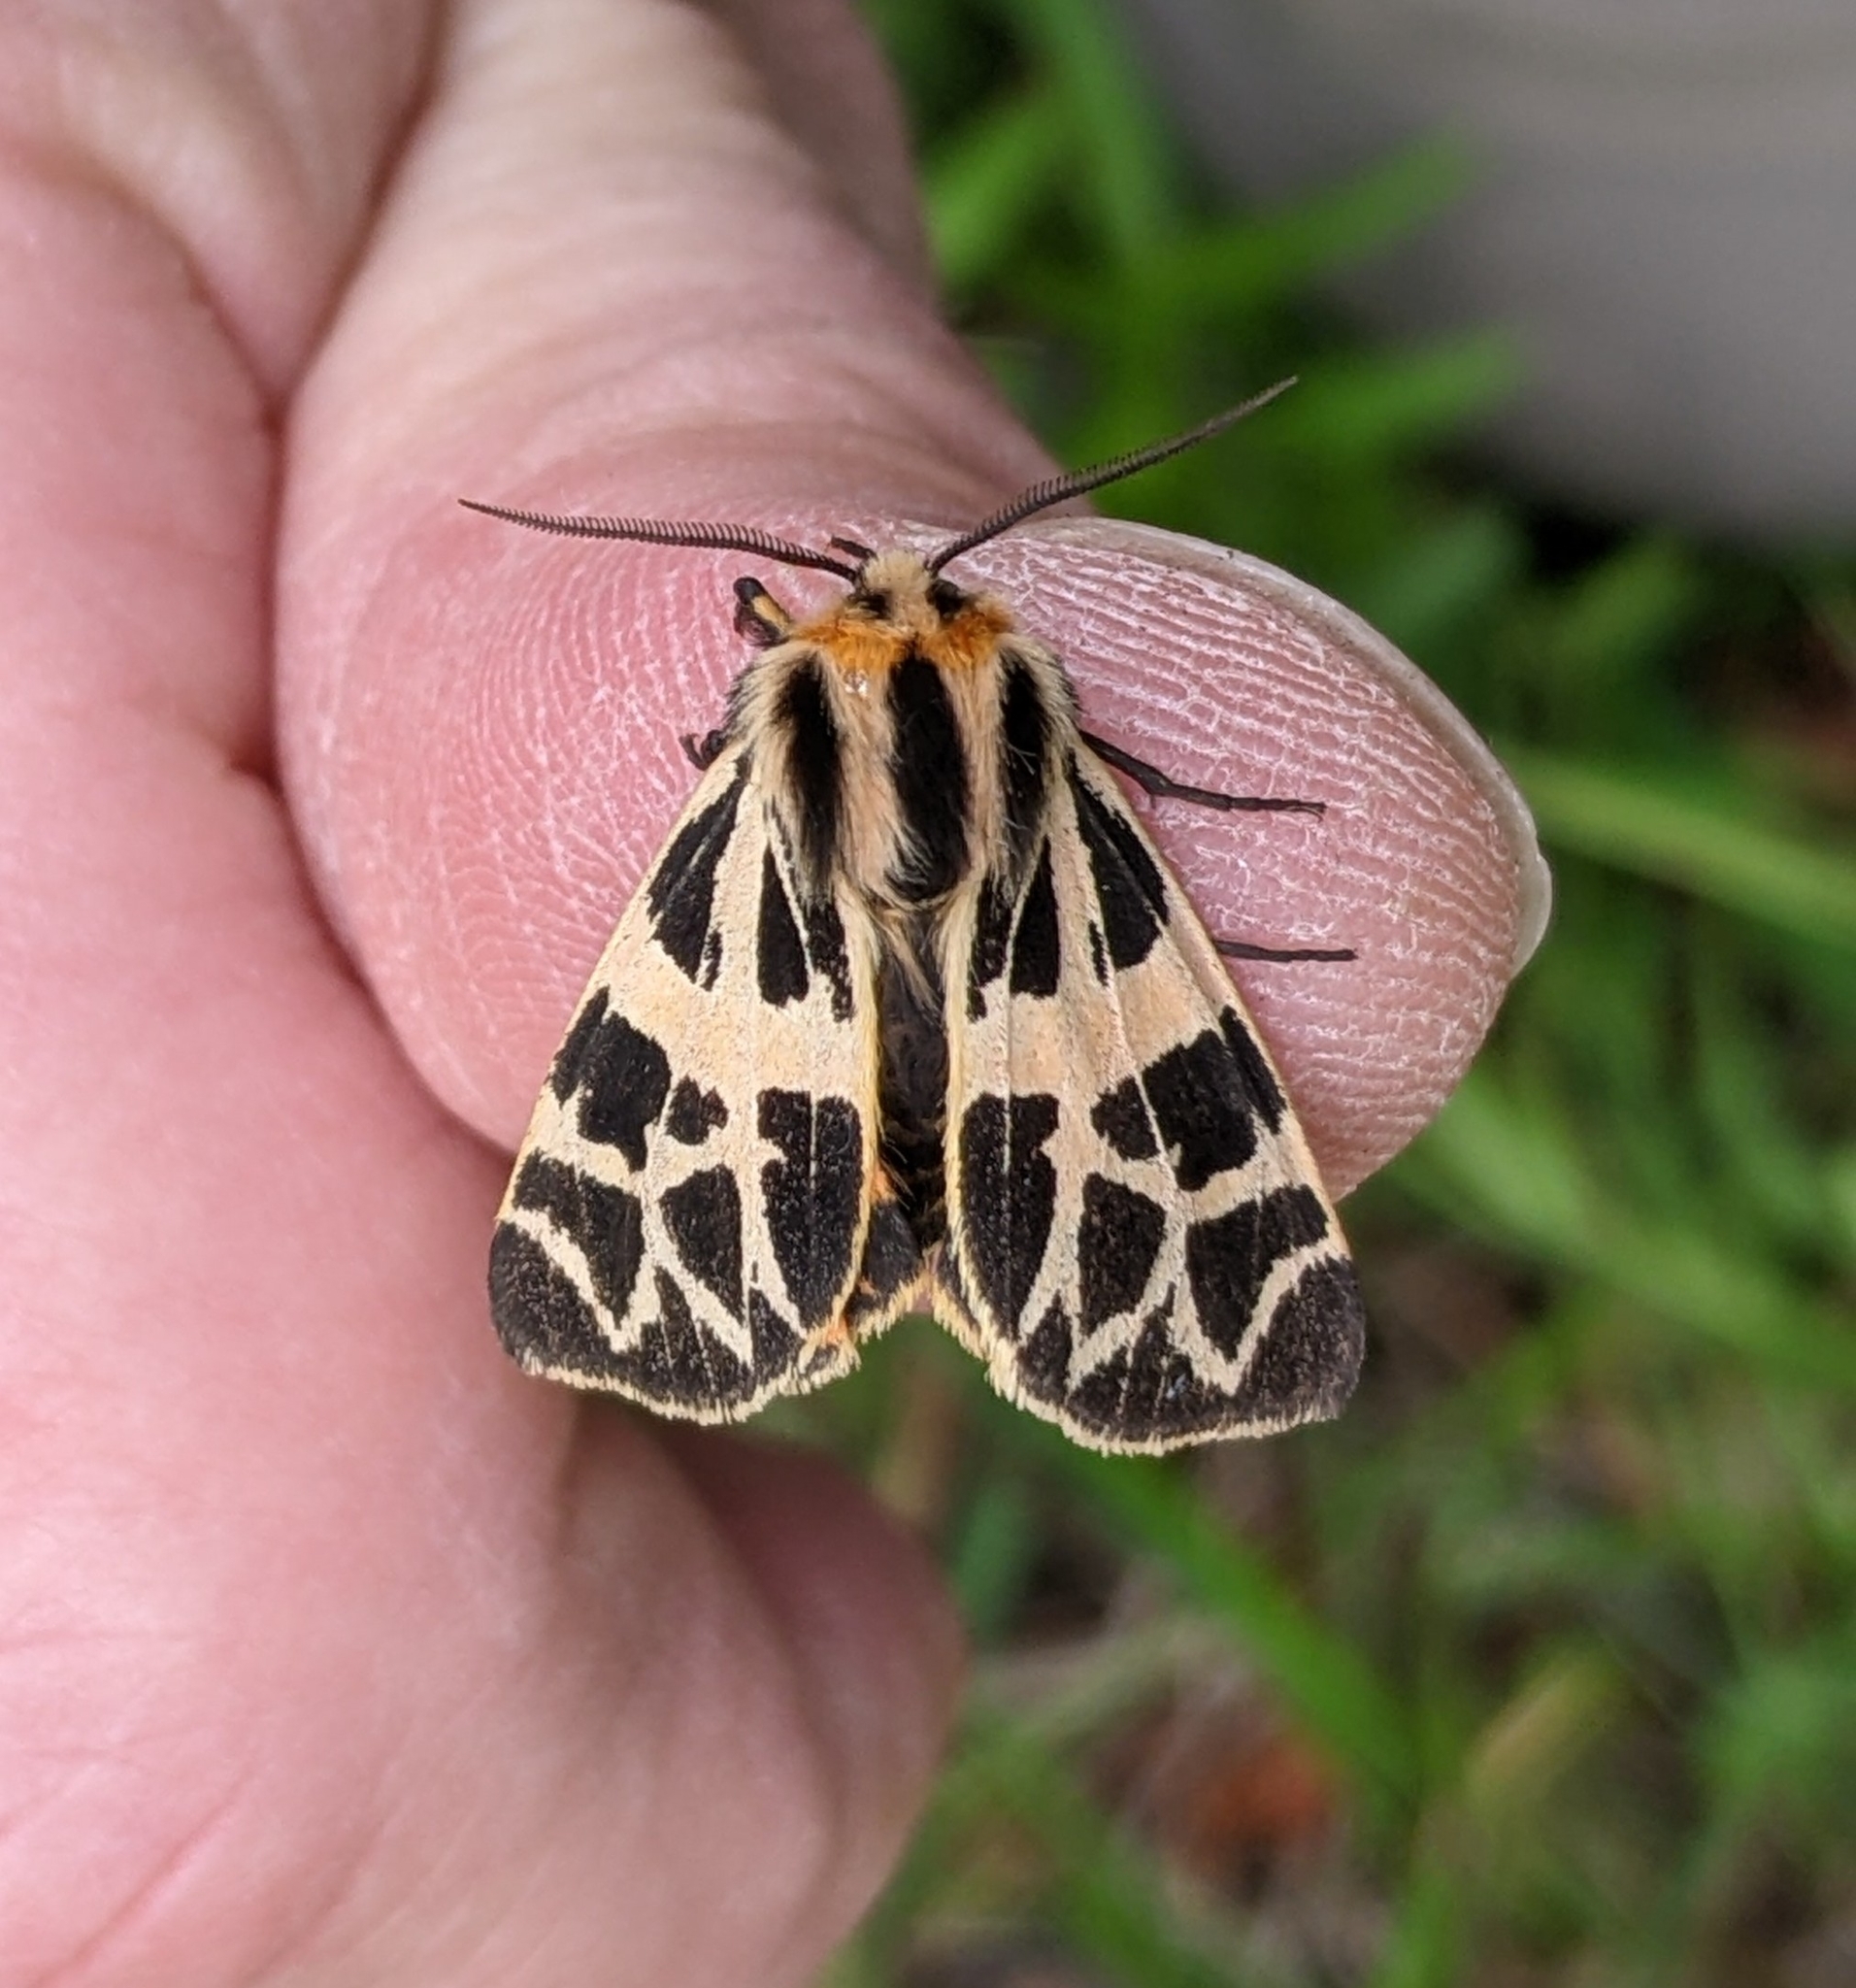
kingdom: Animalia
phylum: Arthropoda
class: Insecta
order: Lepidoptera
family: Erebidae
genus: Apantesis
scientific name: Apantesis
